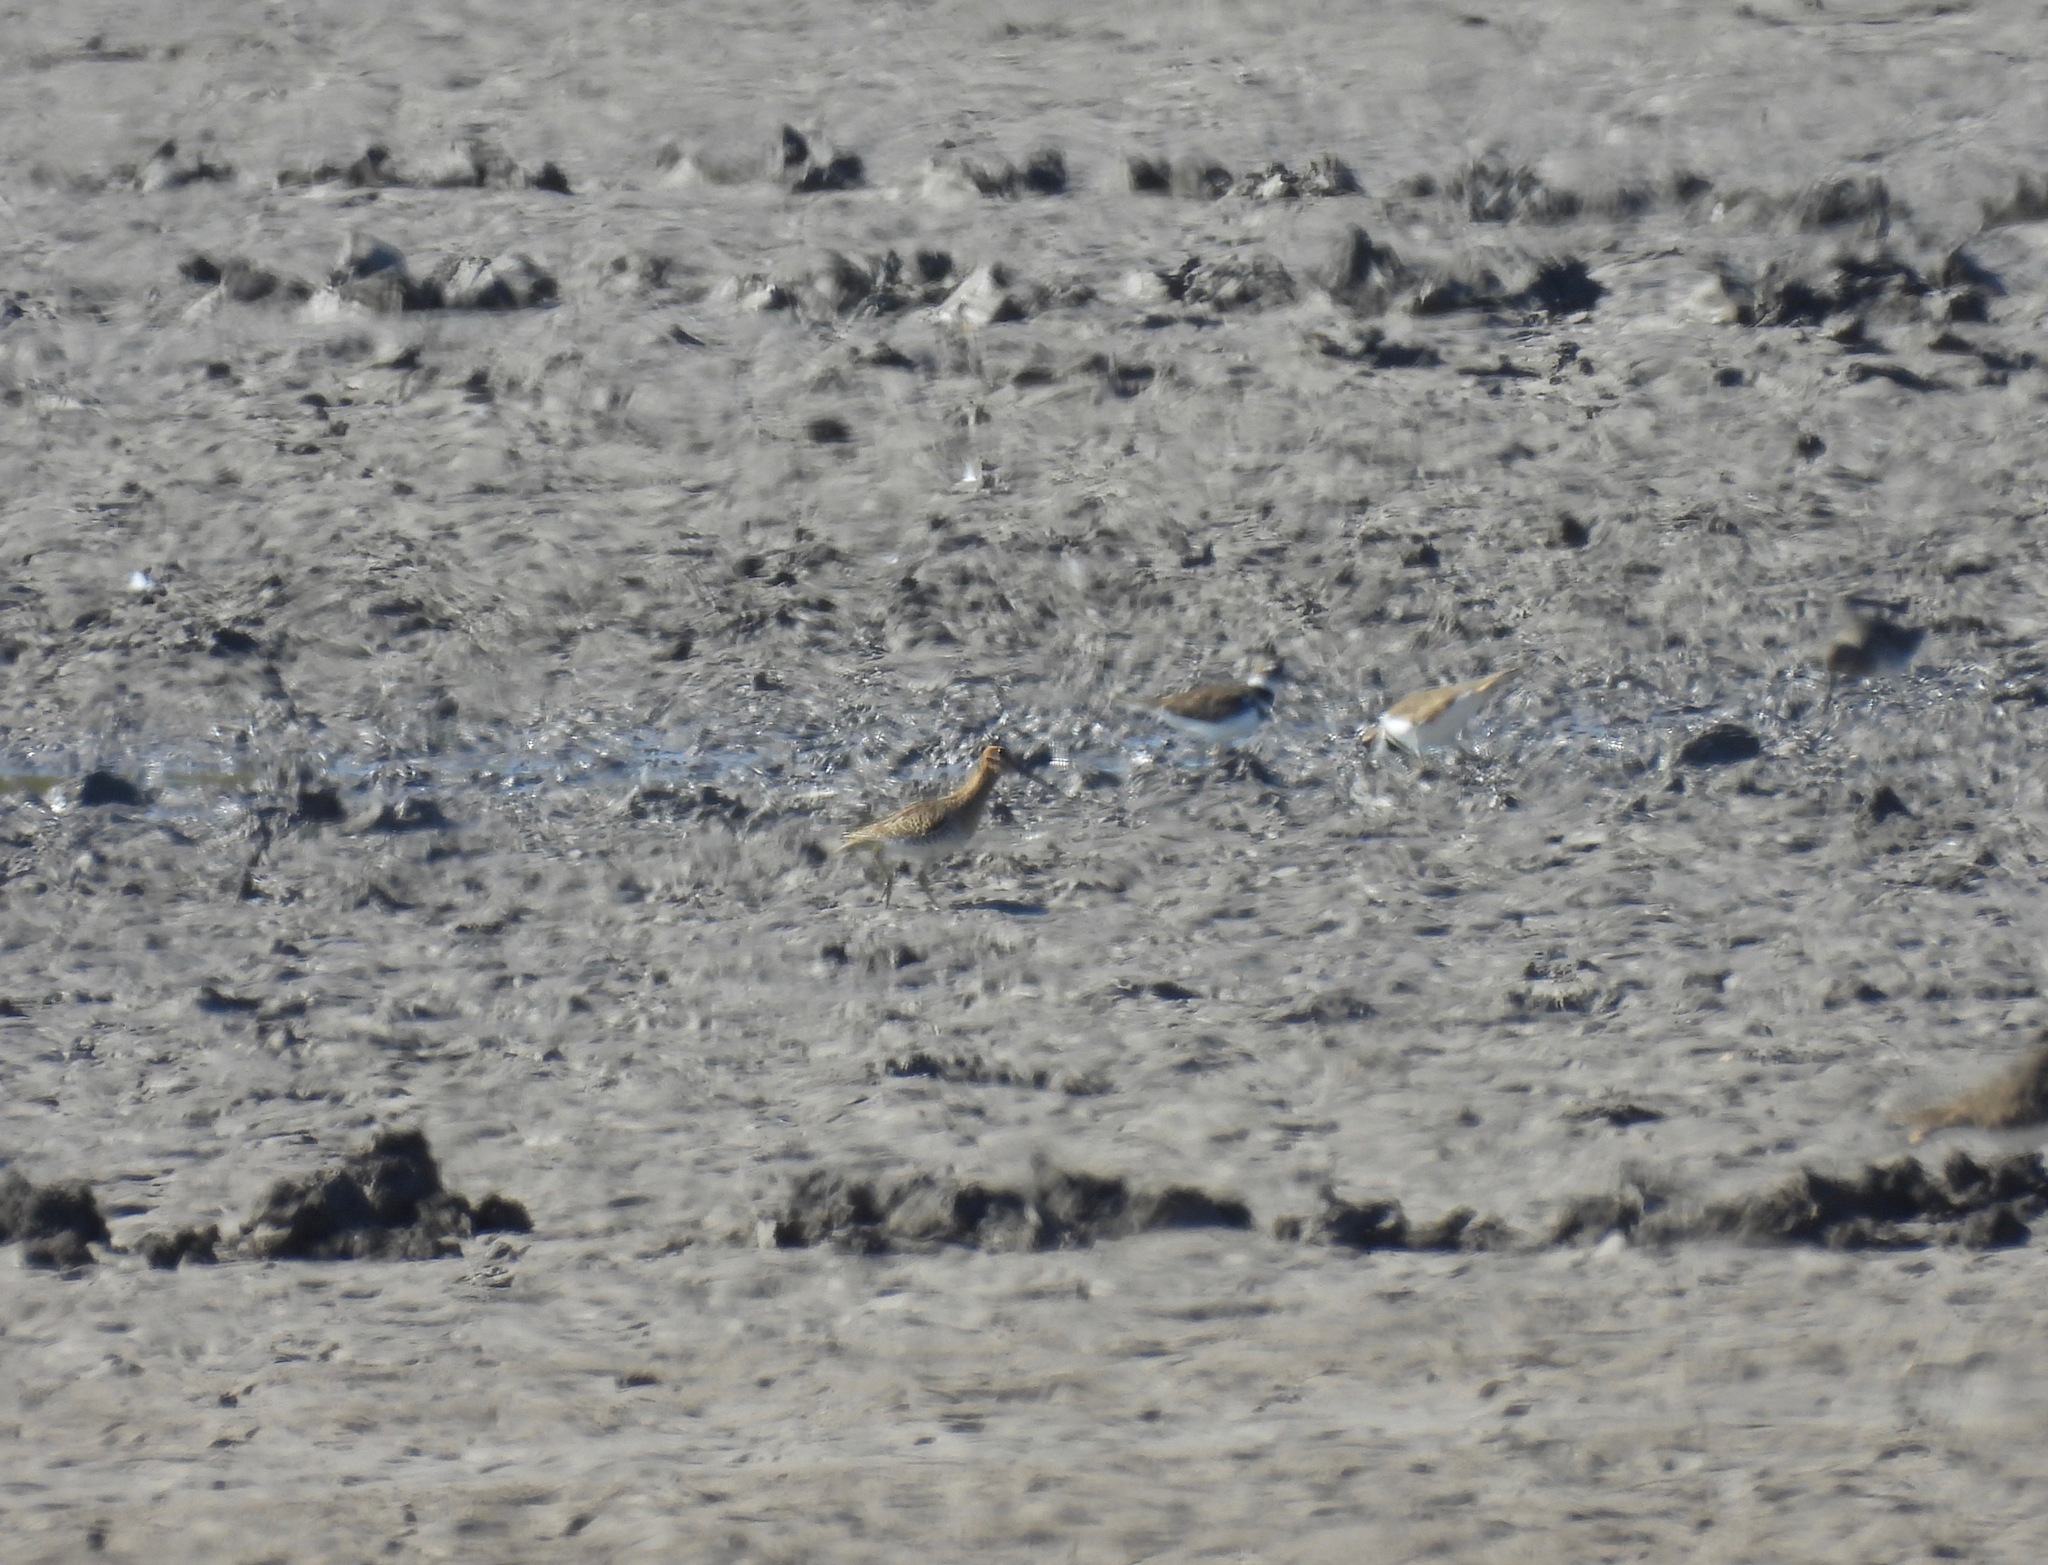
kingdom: Animalia
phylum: Chordata
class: Aves
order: Charadriiformes
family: Scolopacidae
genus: Gallinago
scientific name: Gallinago delicata
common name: Wilson's snipe
